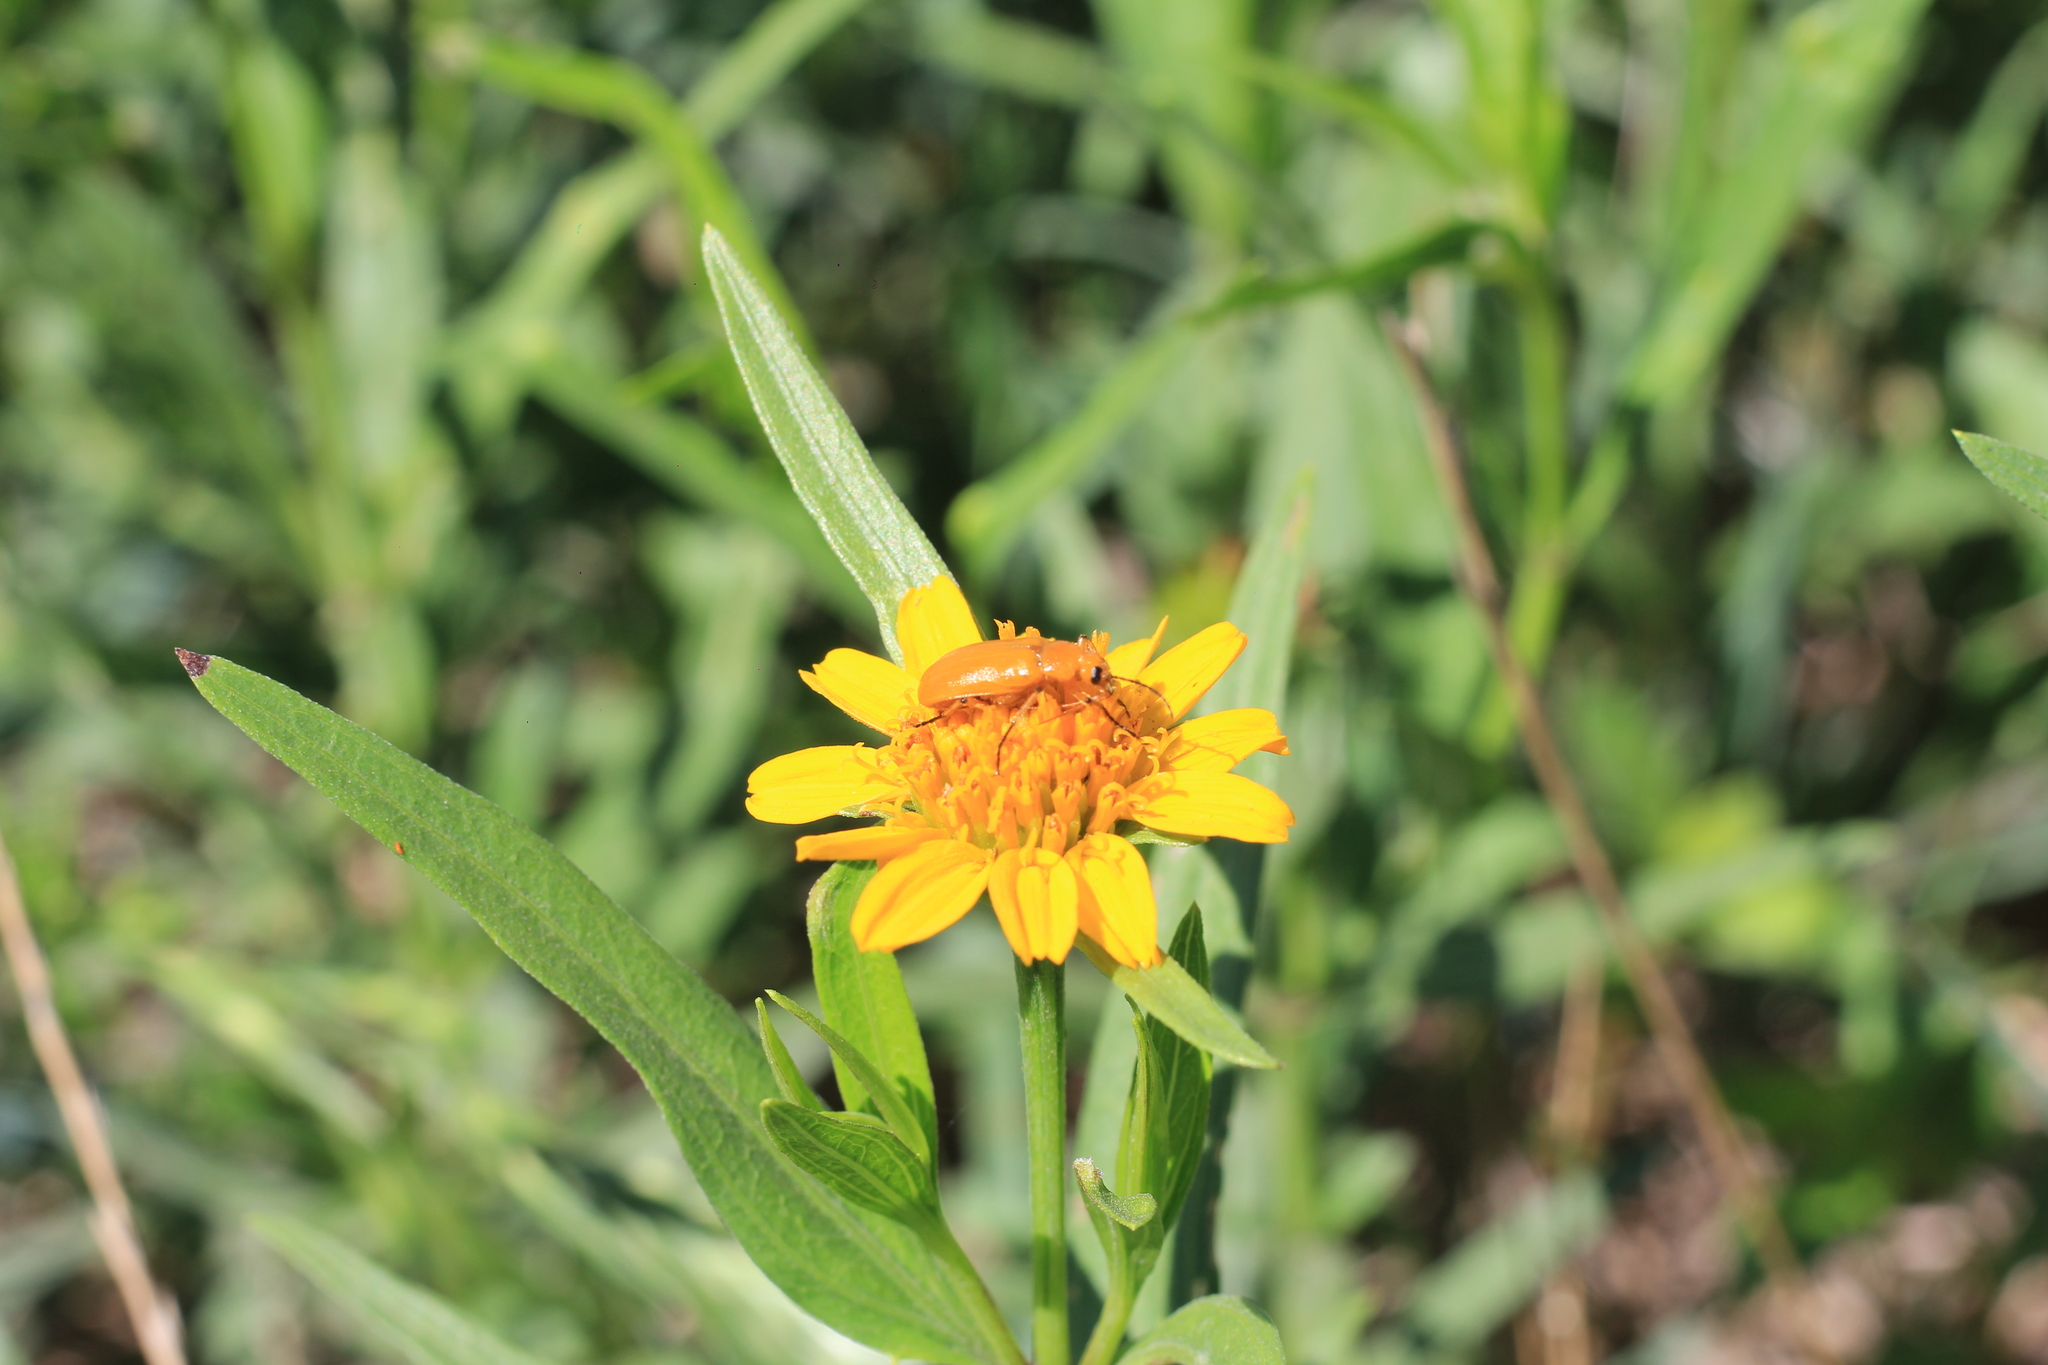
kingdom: Animalia
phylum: Arthropoda
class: Insecta
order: Coleoptera
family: Meloidae
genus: Nemognatha
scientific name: Nemognatha
